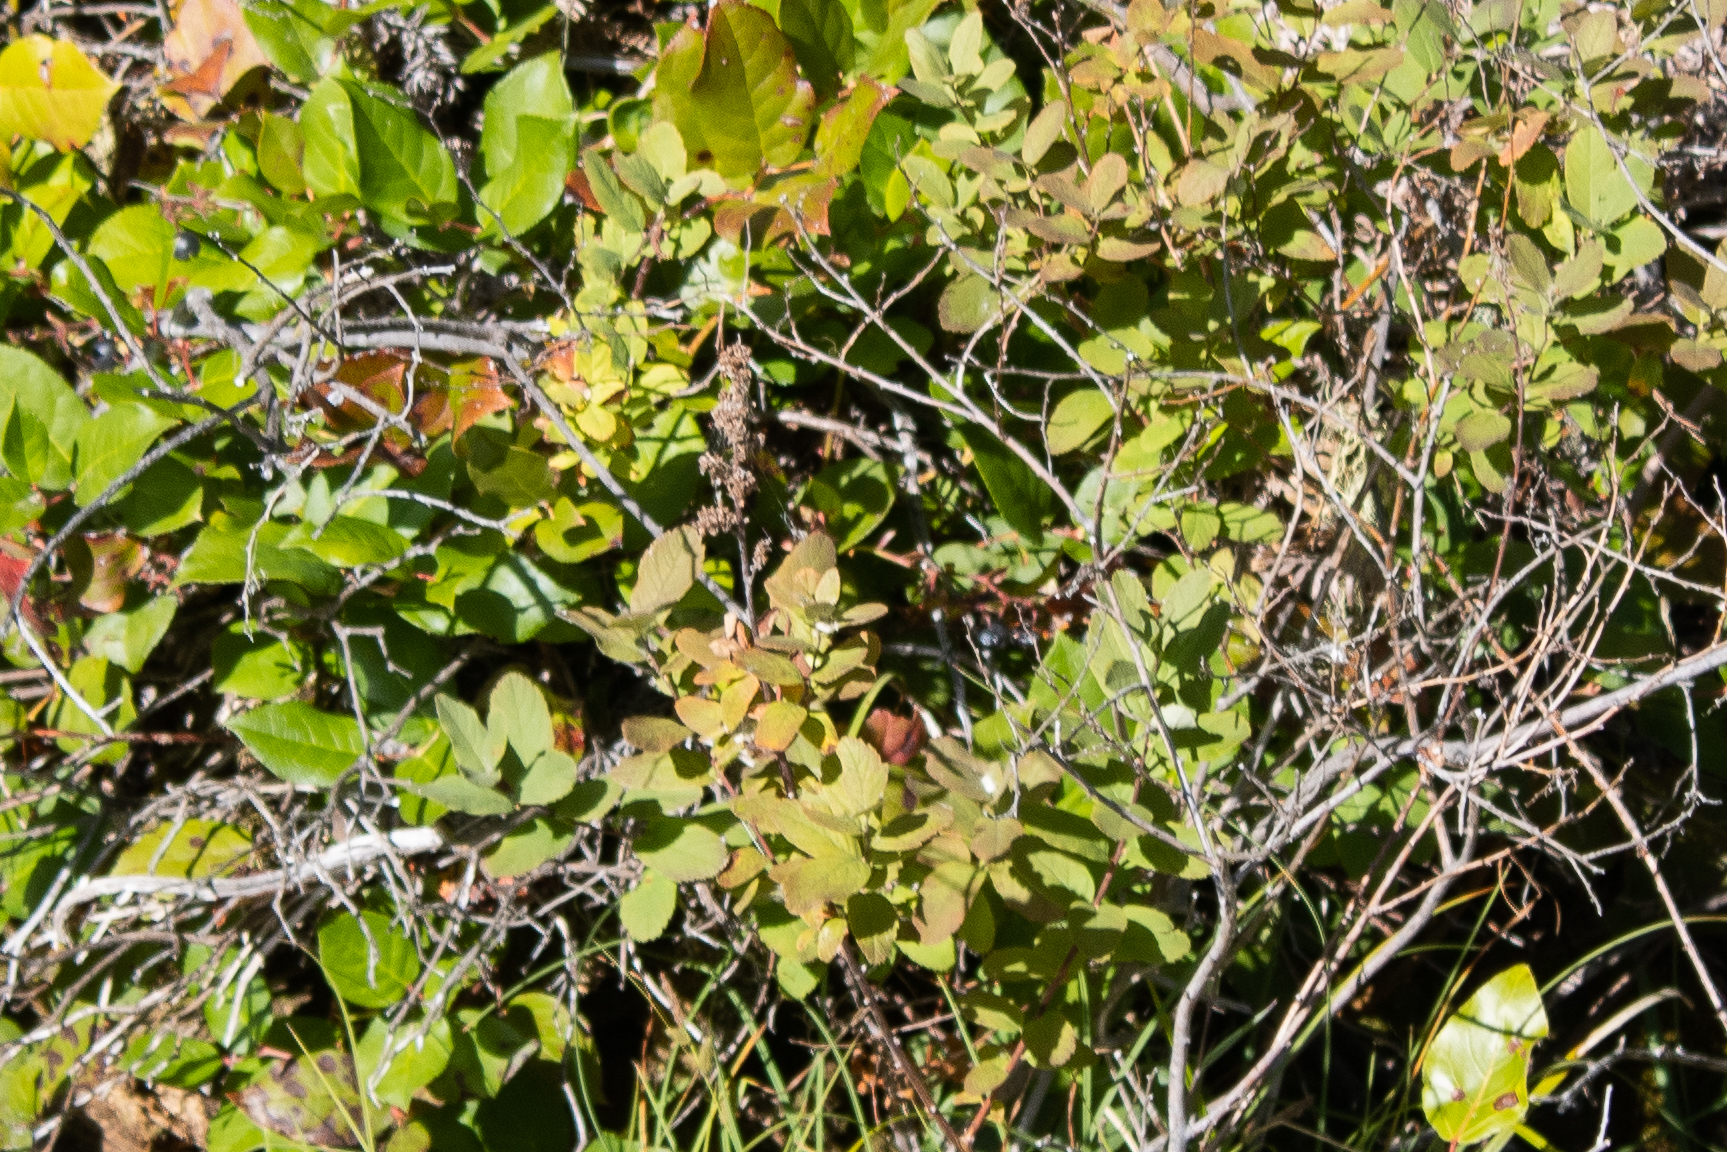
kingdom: Plantae
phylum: Tracheophyta
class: Magnoliopsida
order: Rosales
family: Rosaceae
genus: Spiraea
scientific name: Spiraea douglasii
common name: Steeplebush
